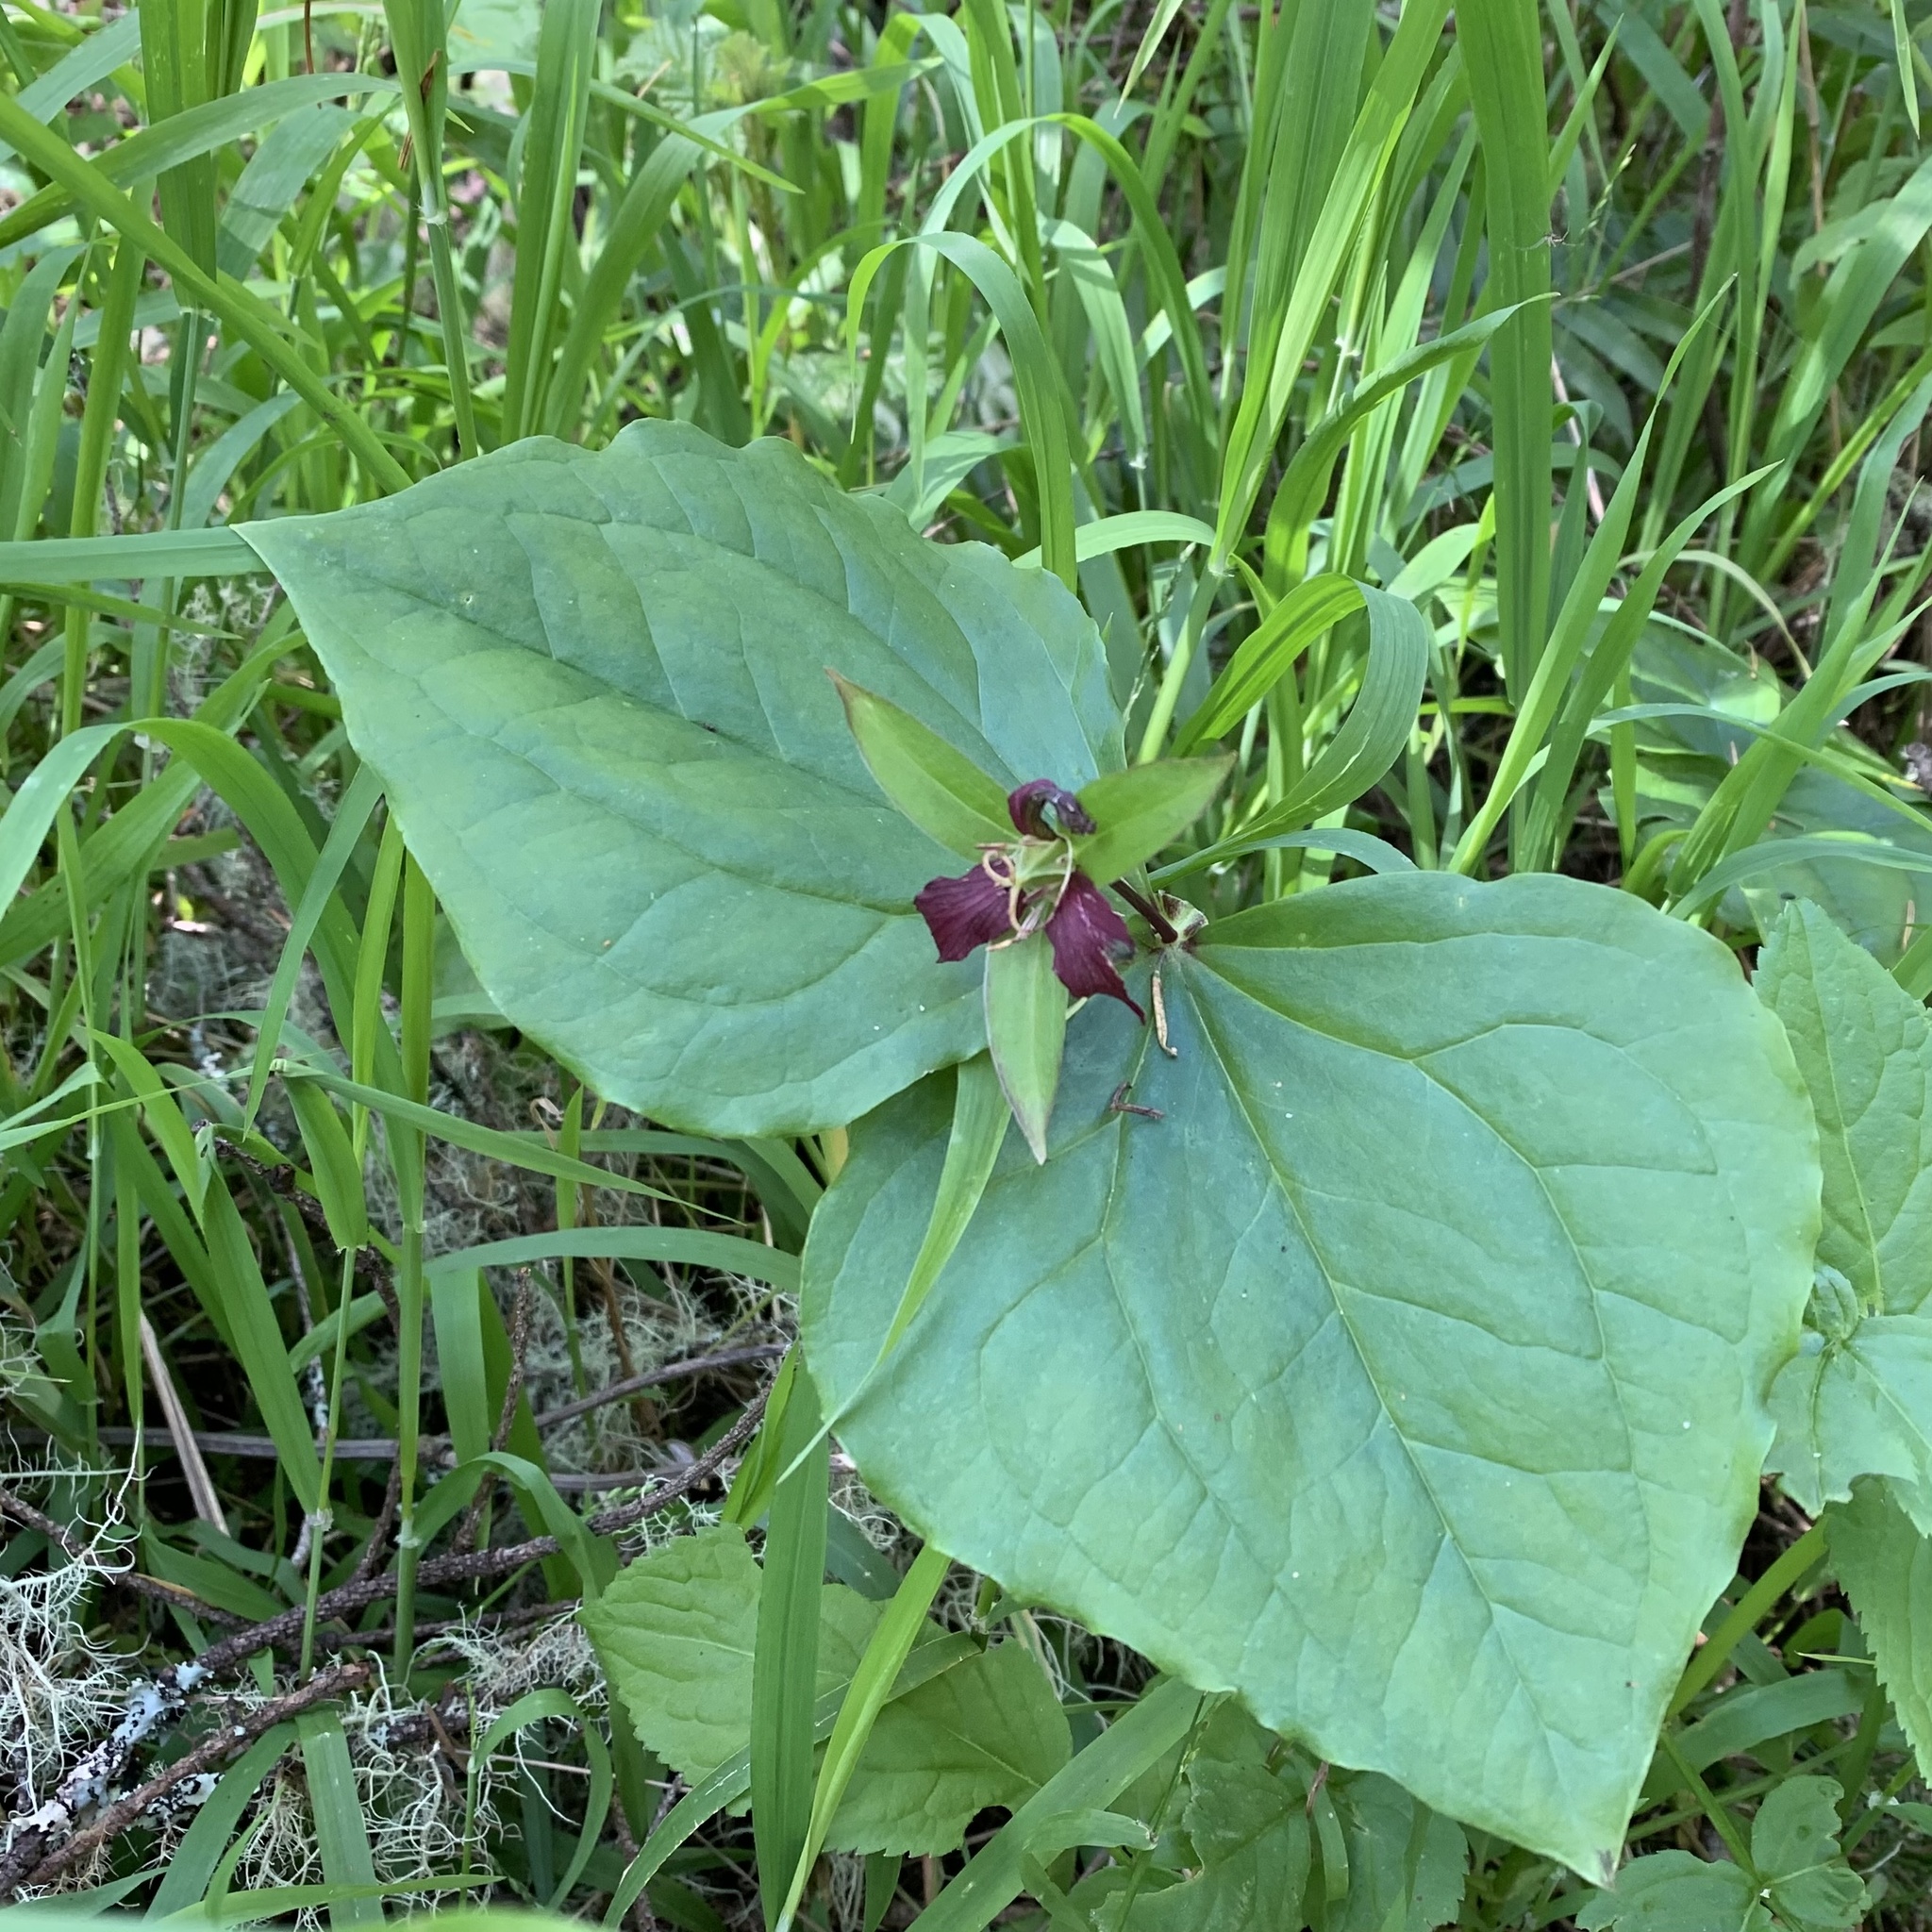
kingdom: Plantae
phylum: Tracheophyta
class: Liliopsida
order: Liliales
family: Melanthiaceae
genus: Trillium
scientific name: Trillium ovatum
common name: Pacific trillium
